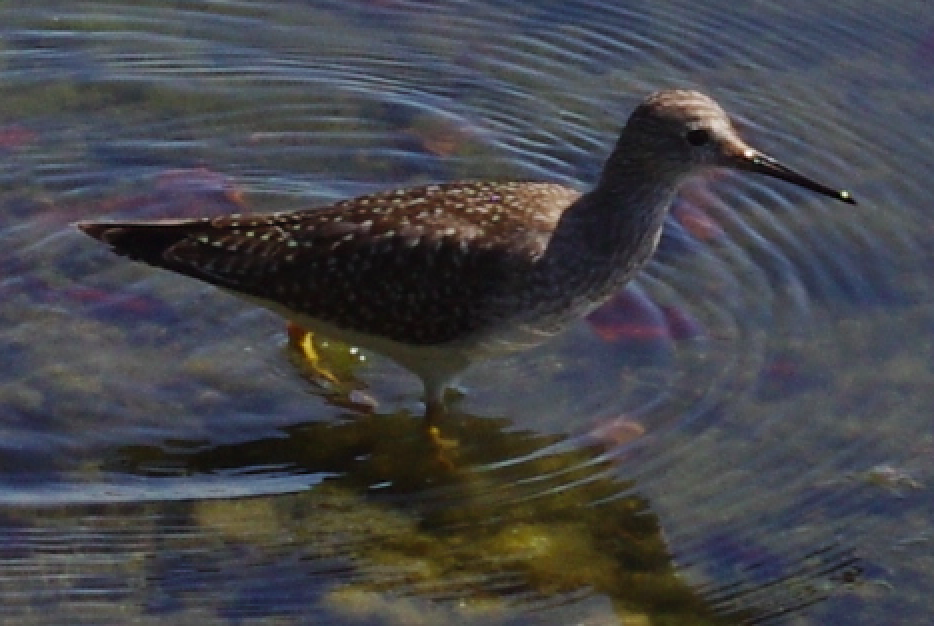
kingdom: Animalia
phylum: Chordata
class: Aves
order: Charadriiformes
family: Scolopacidae
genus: Tringa
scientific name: Tringa flavipes
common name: Lesser yellowlegs
